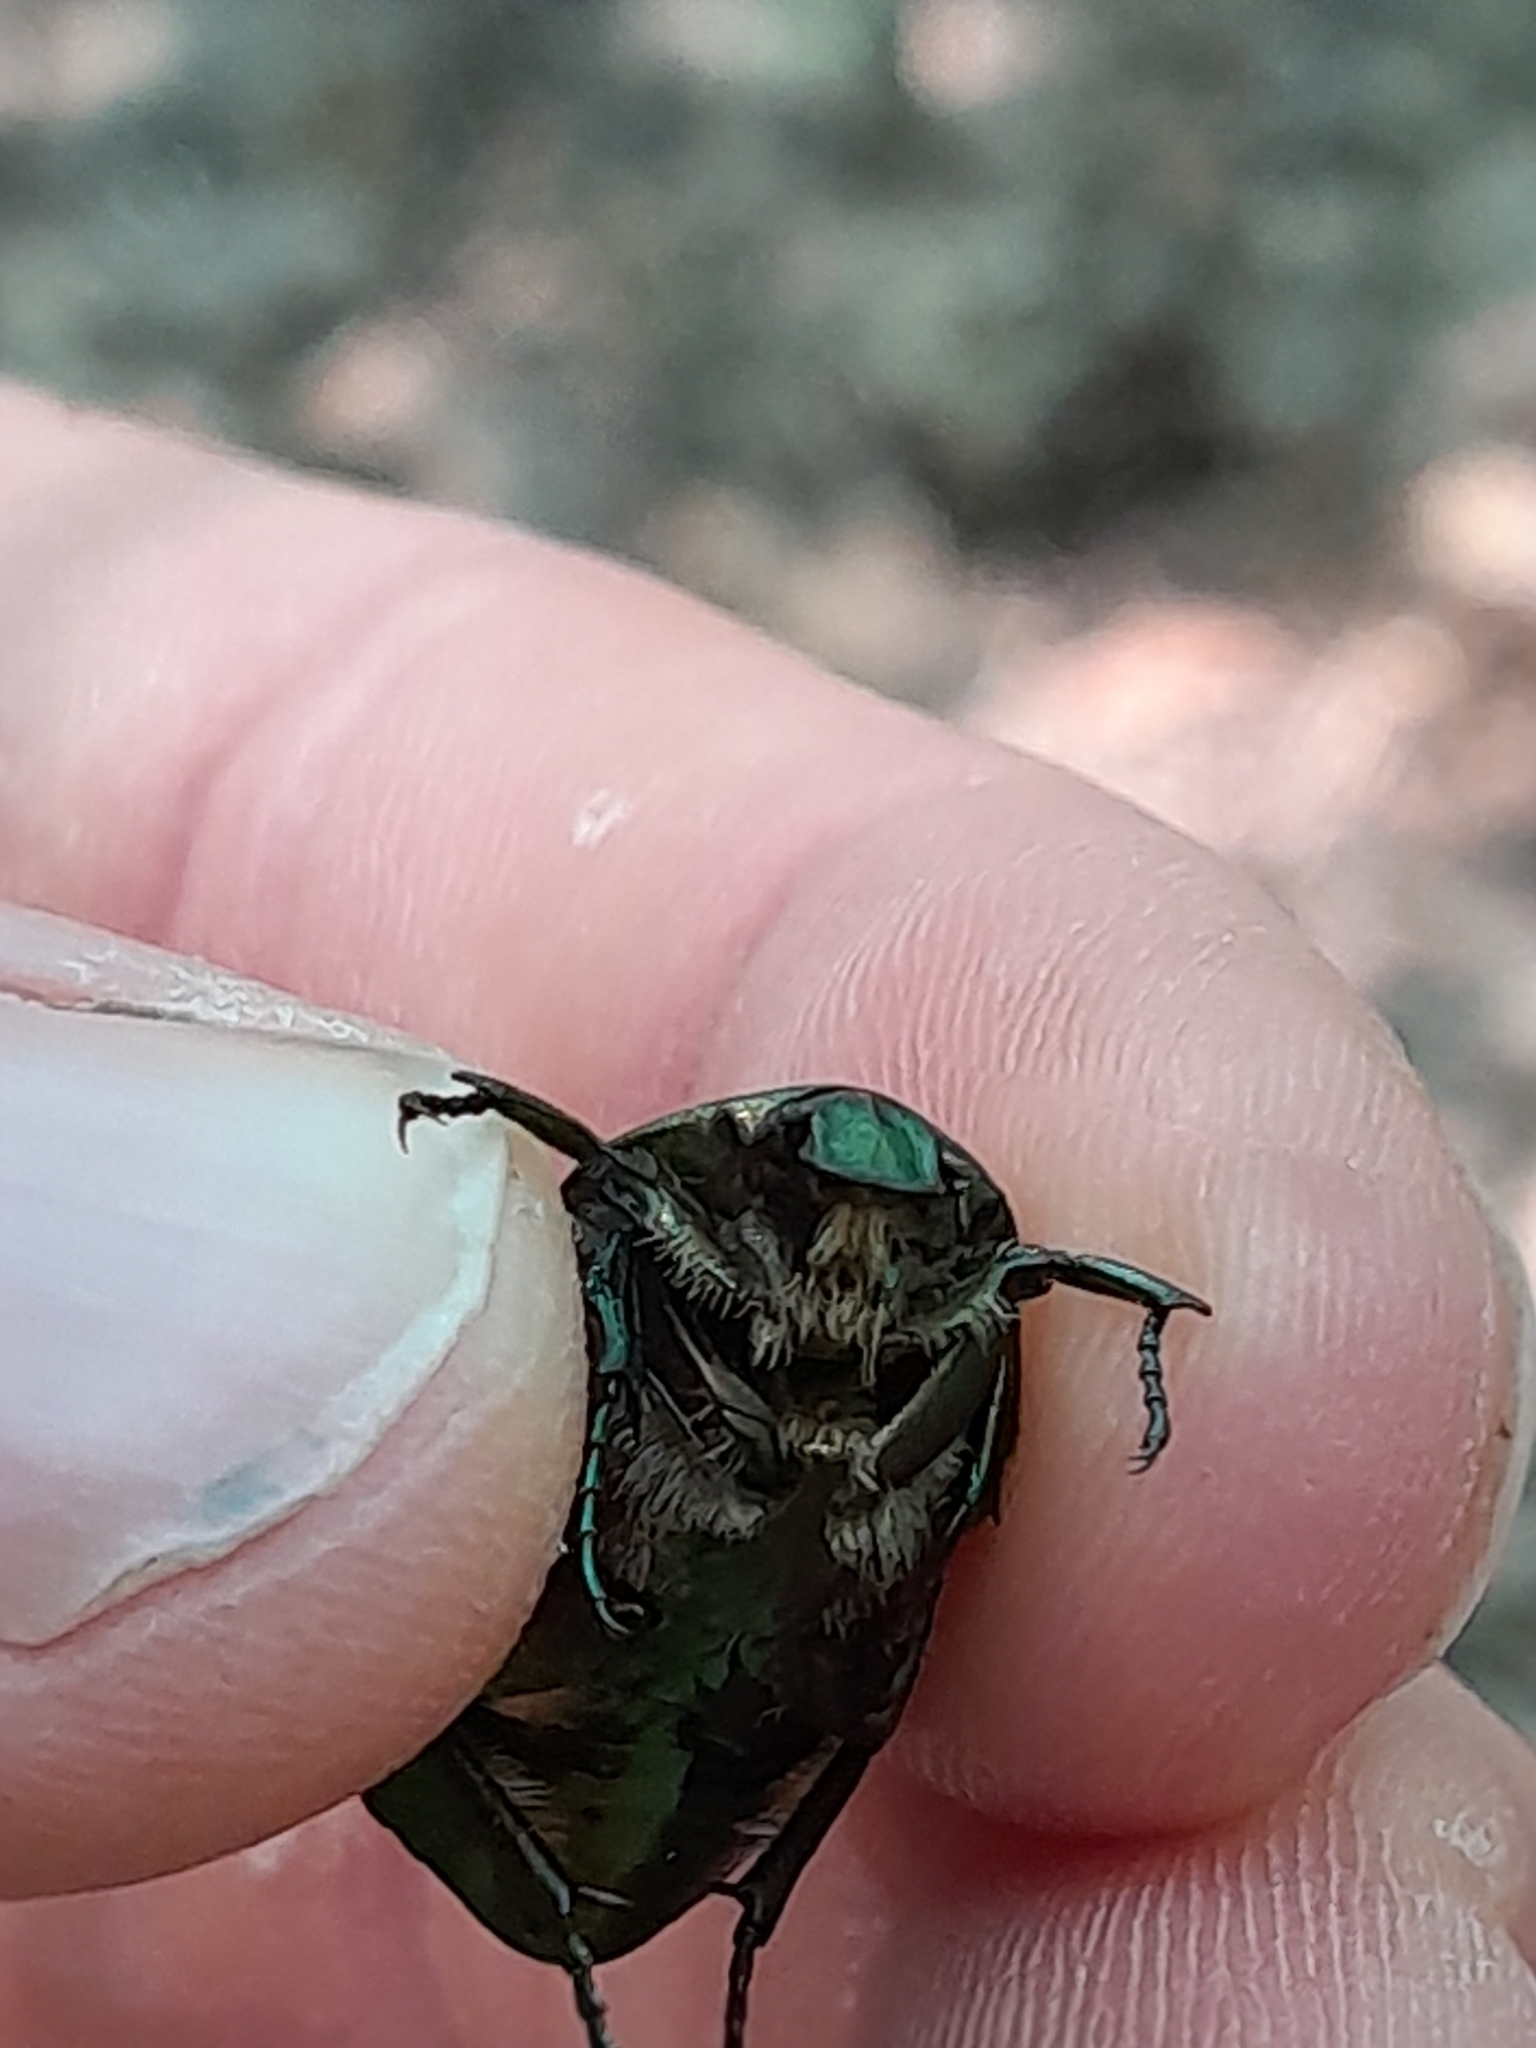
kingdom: Animalia
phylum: Arthropoda
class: Insecta
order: Coleoptera
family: Scarabaeidae
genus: Cetonia
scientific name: Cetonia aurata
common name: Rose chafer
